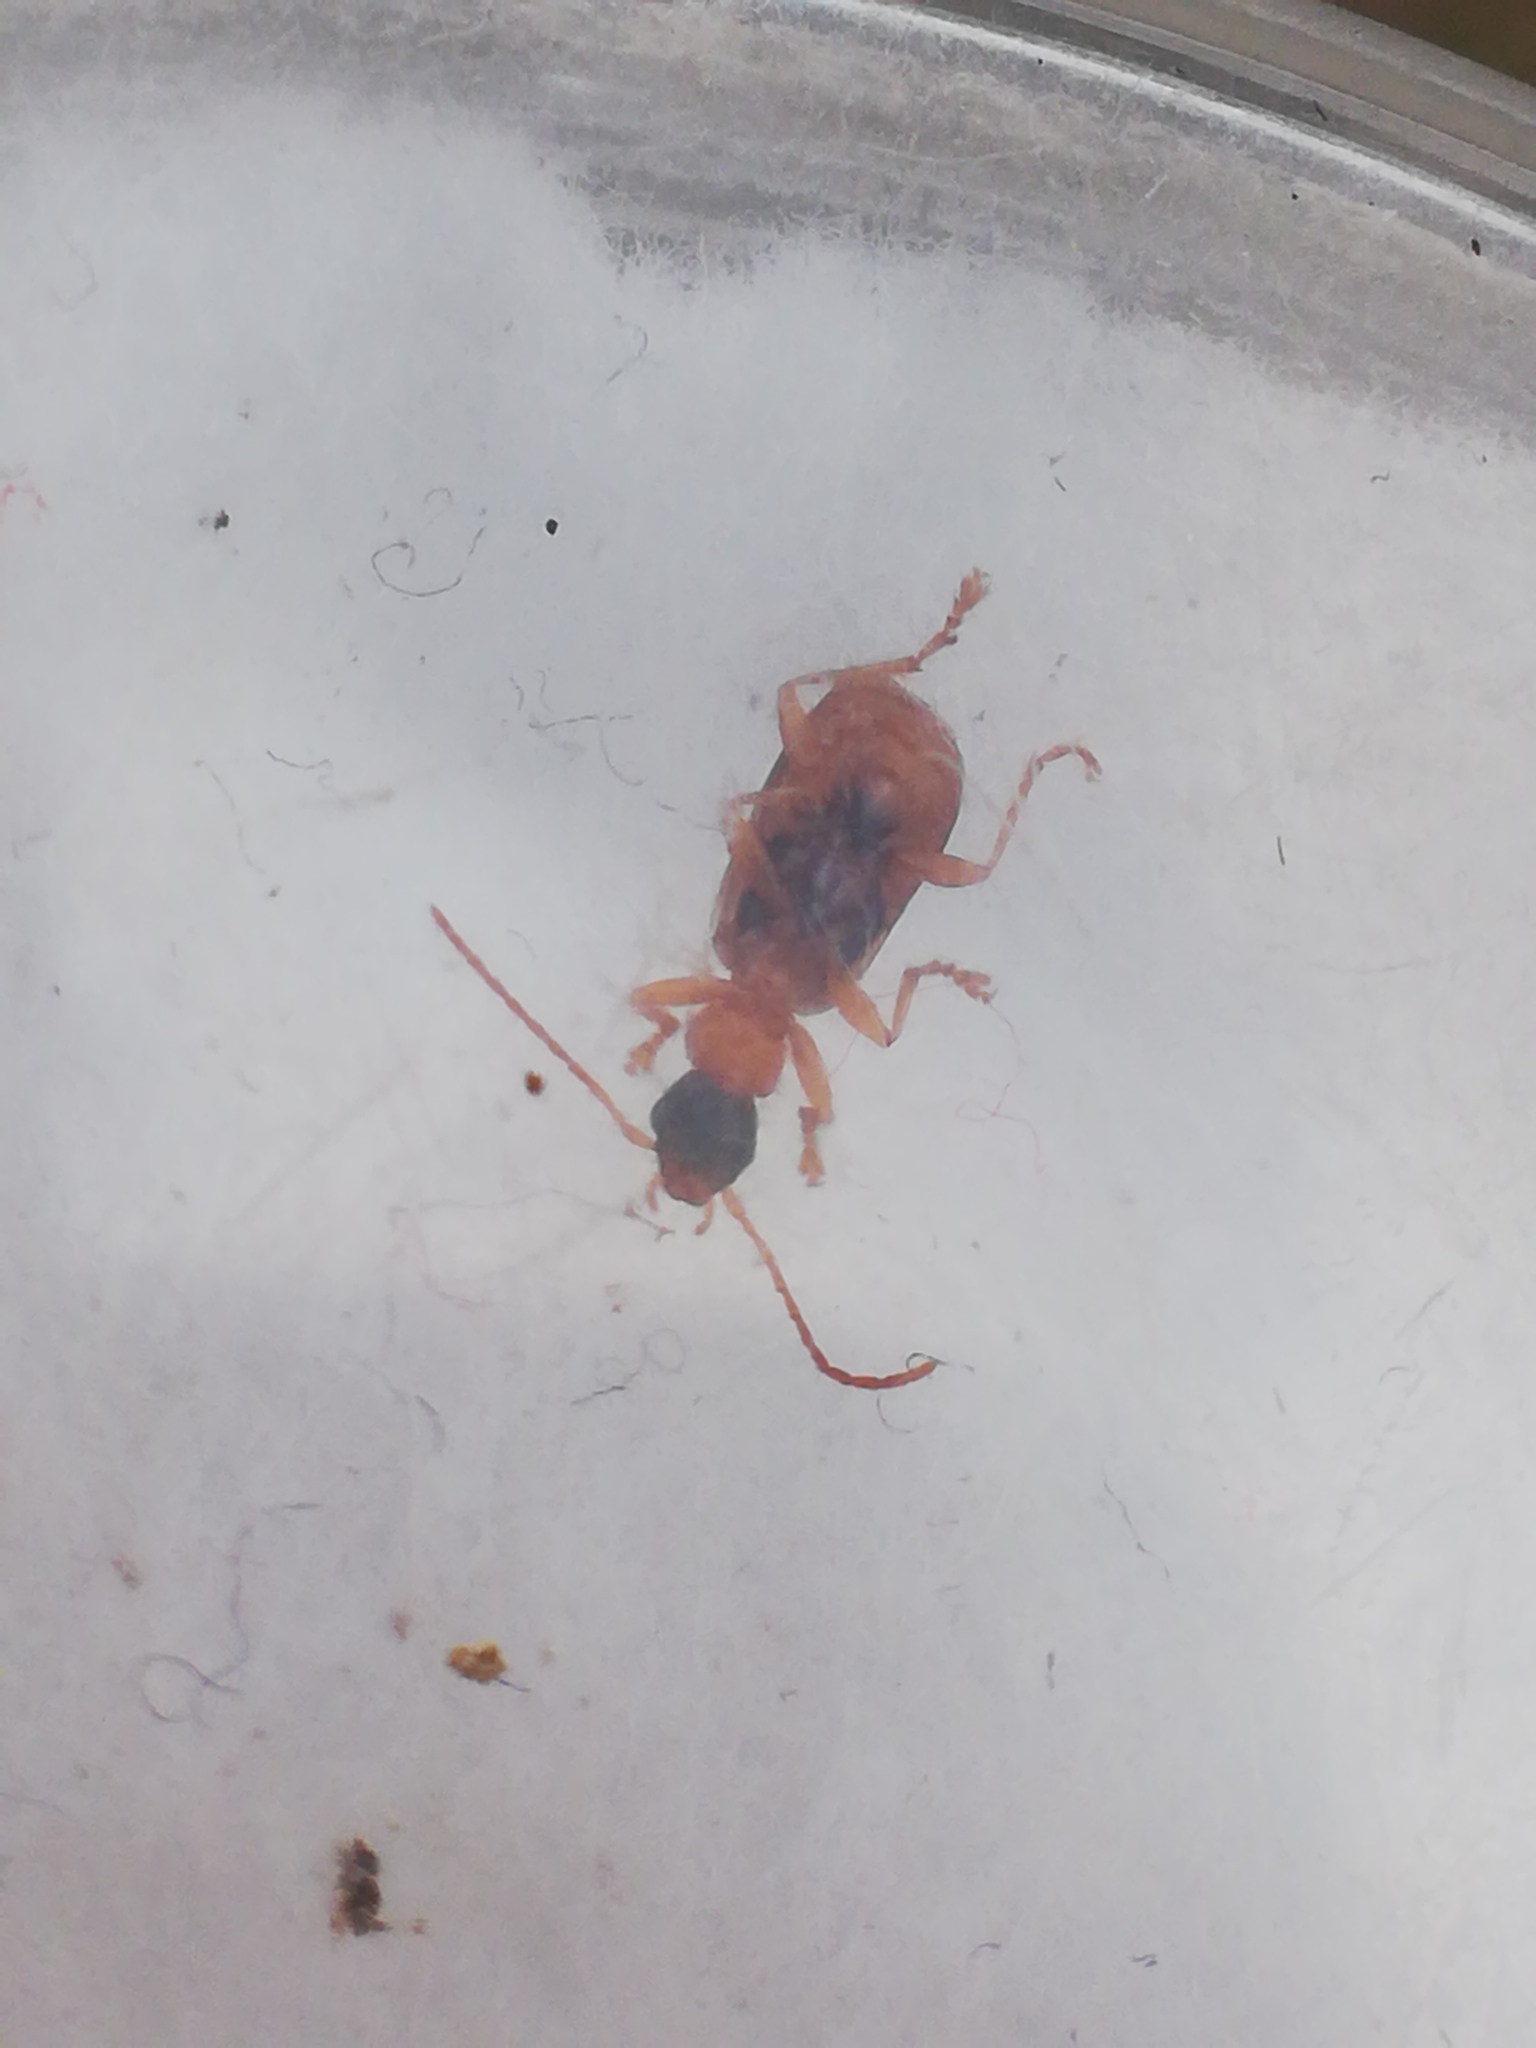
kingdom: Animalia
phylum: Arthropoda
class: Insecta
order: Coleoptera
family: Carabidae
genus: Demetrias
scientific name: Demetrias imperialis
